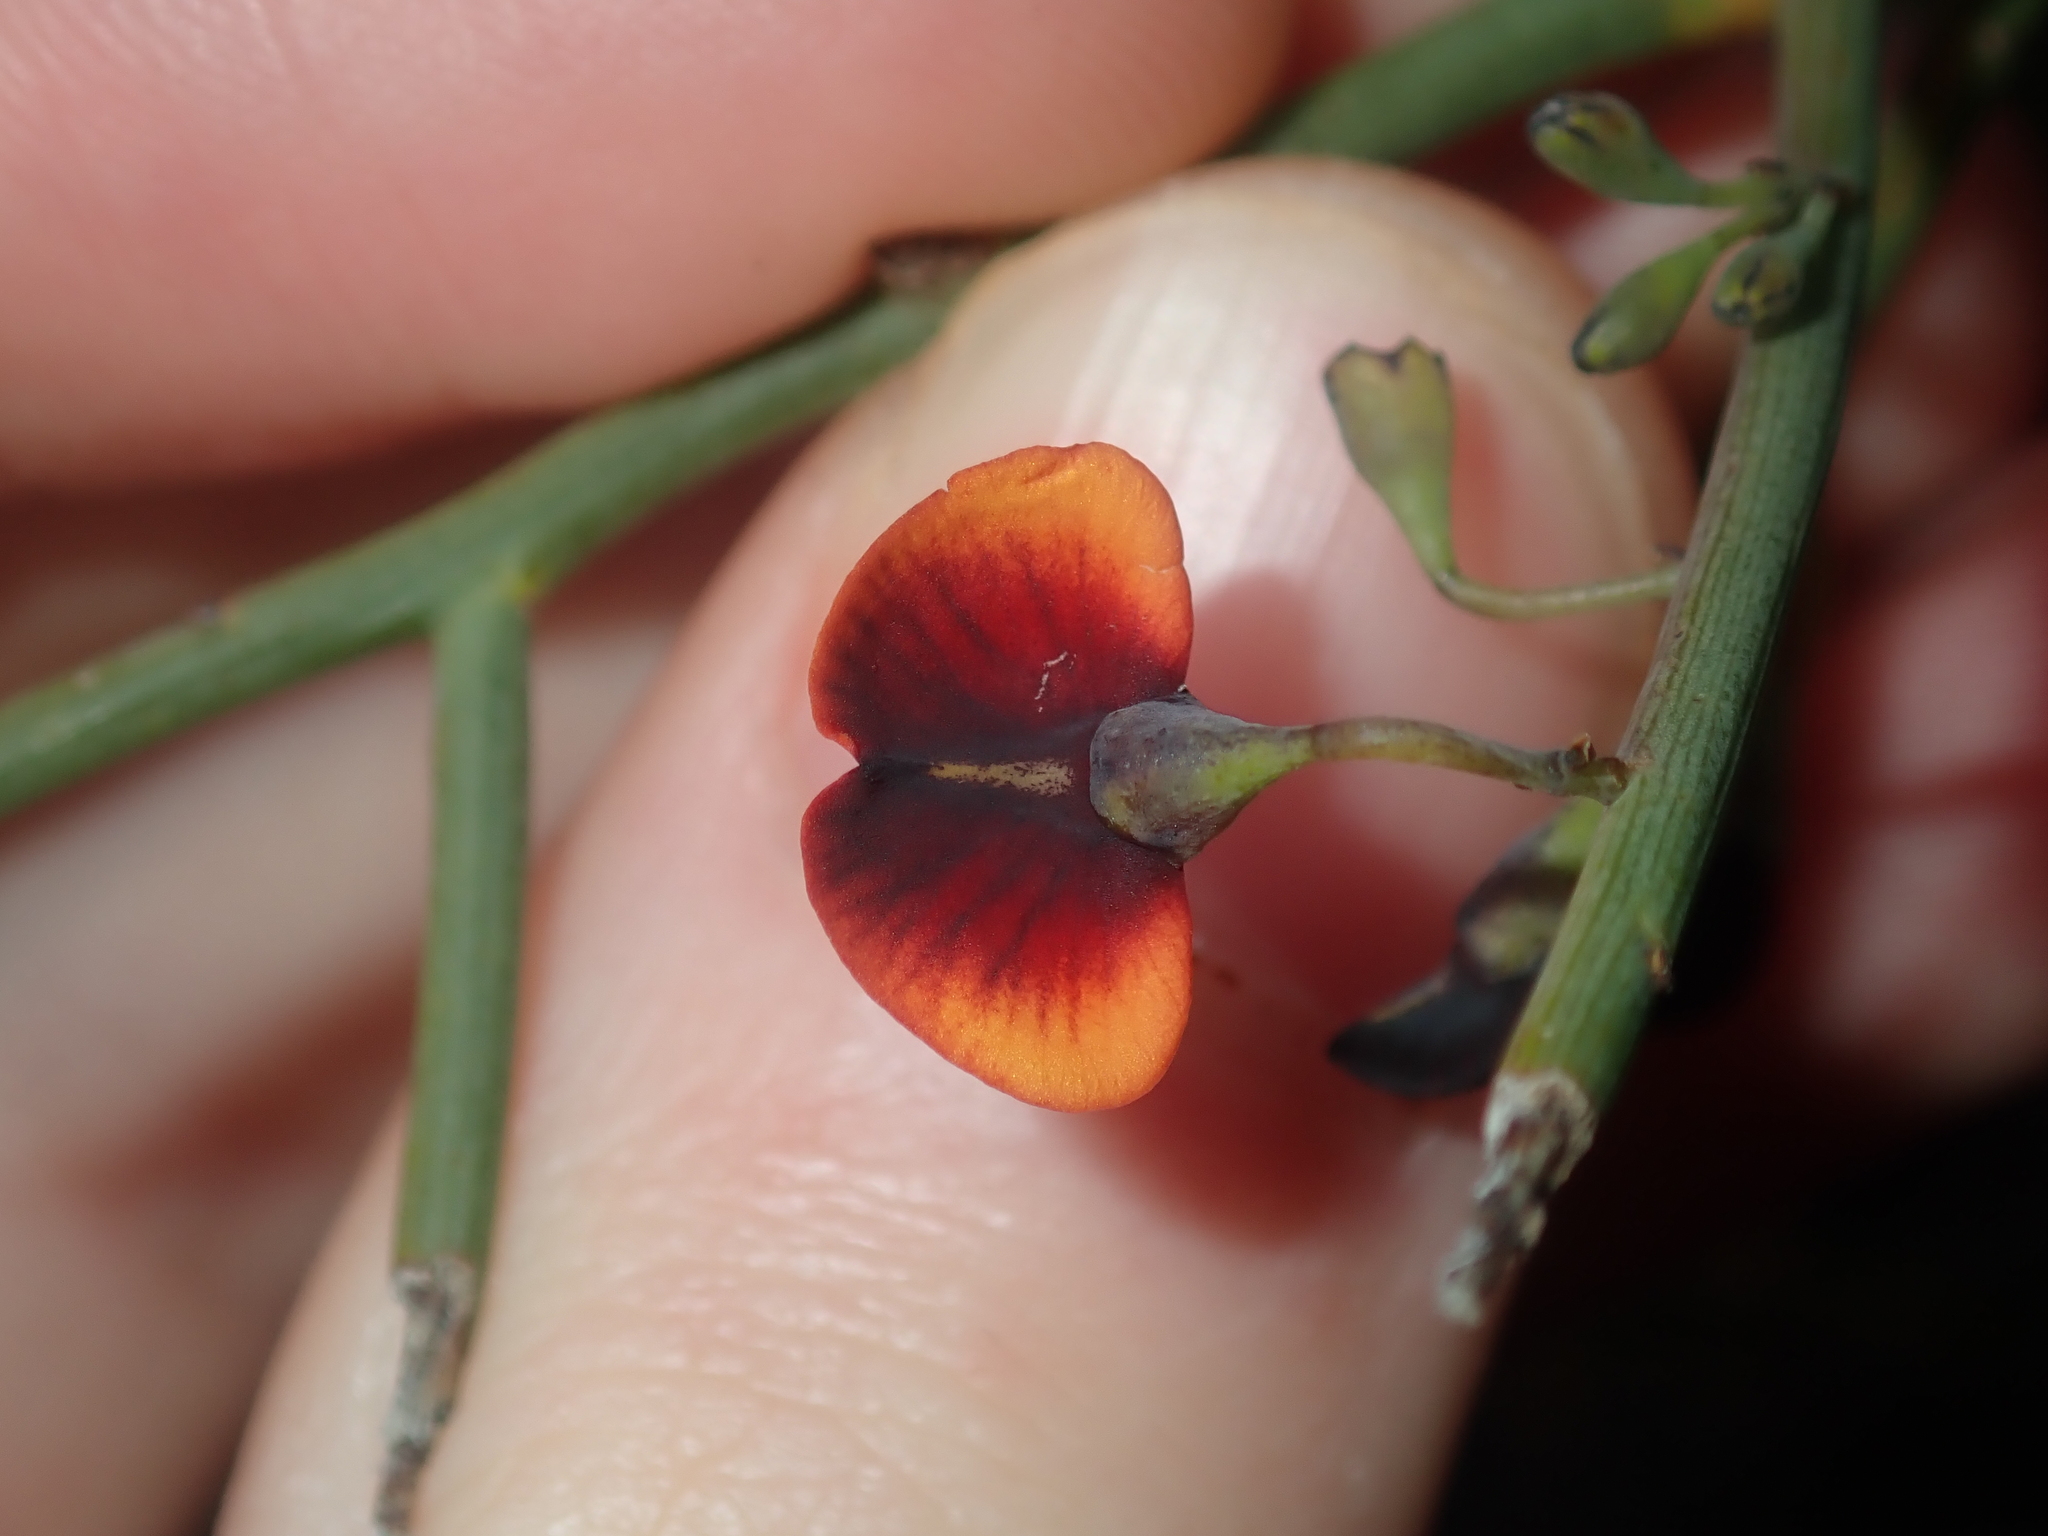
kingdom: Plantae
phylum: Tracheophyta
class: Magnoliopsida
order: Fabales
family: Fabaceae
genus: Daviesia
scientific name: Daviesia divaricata
